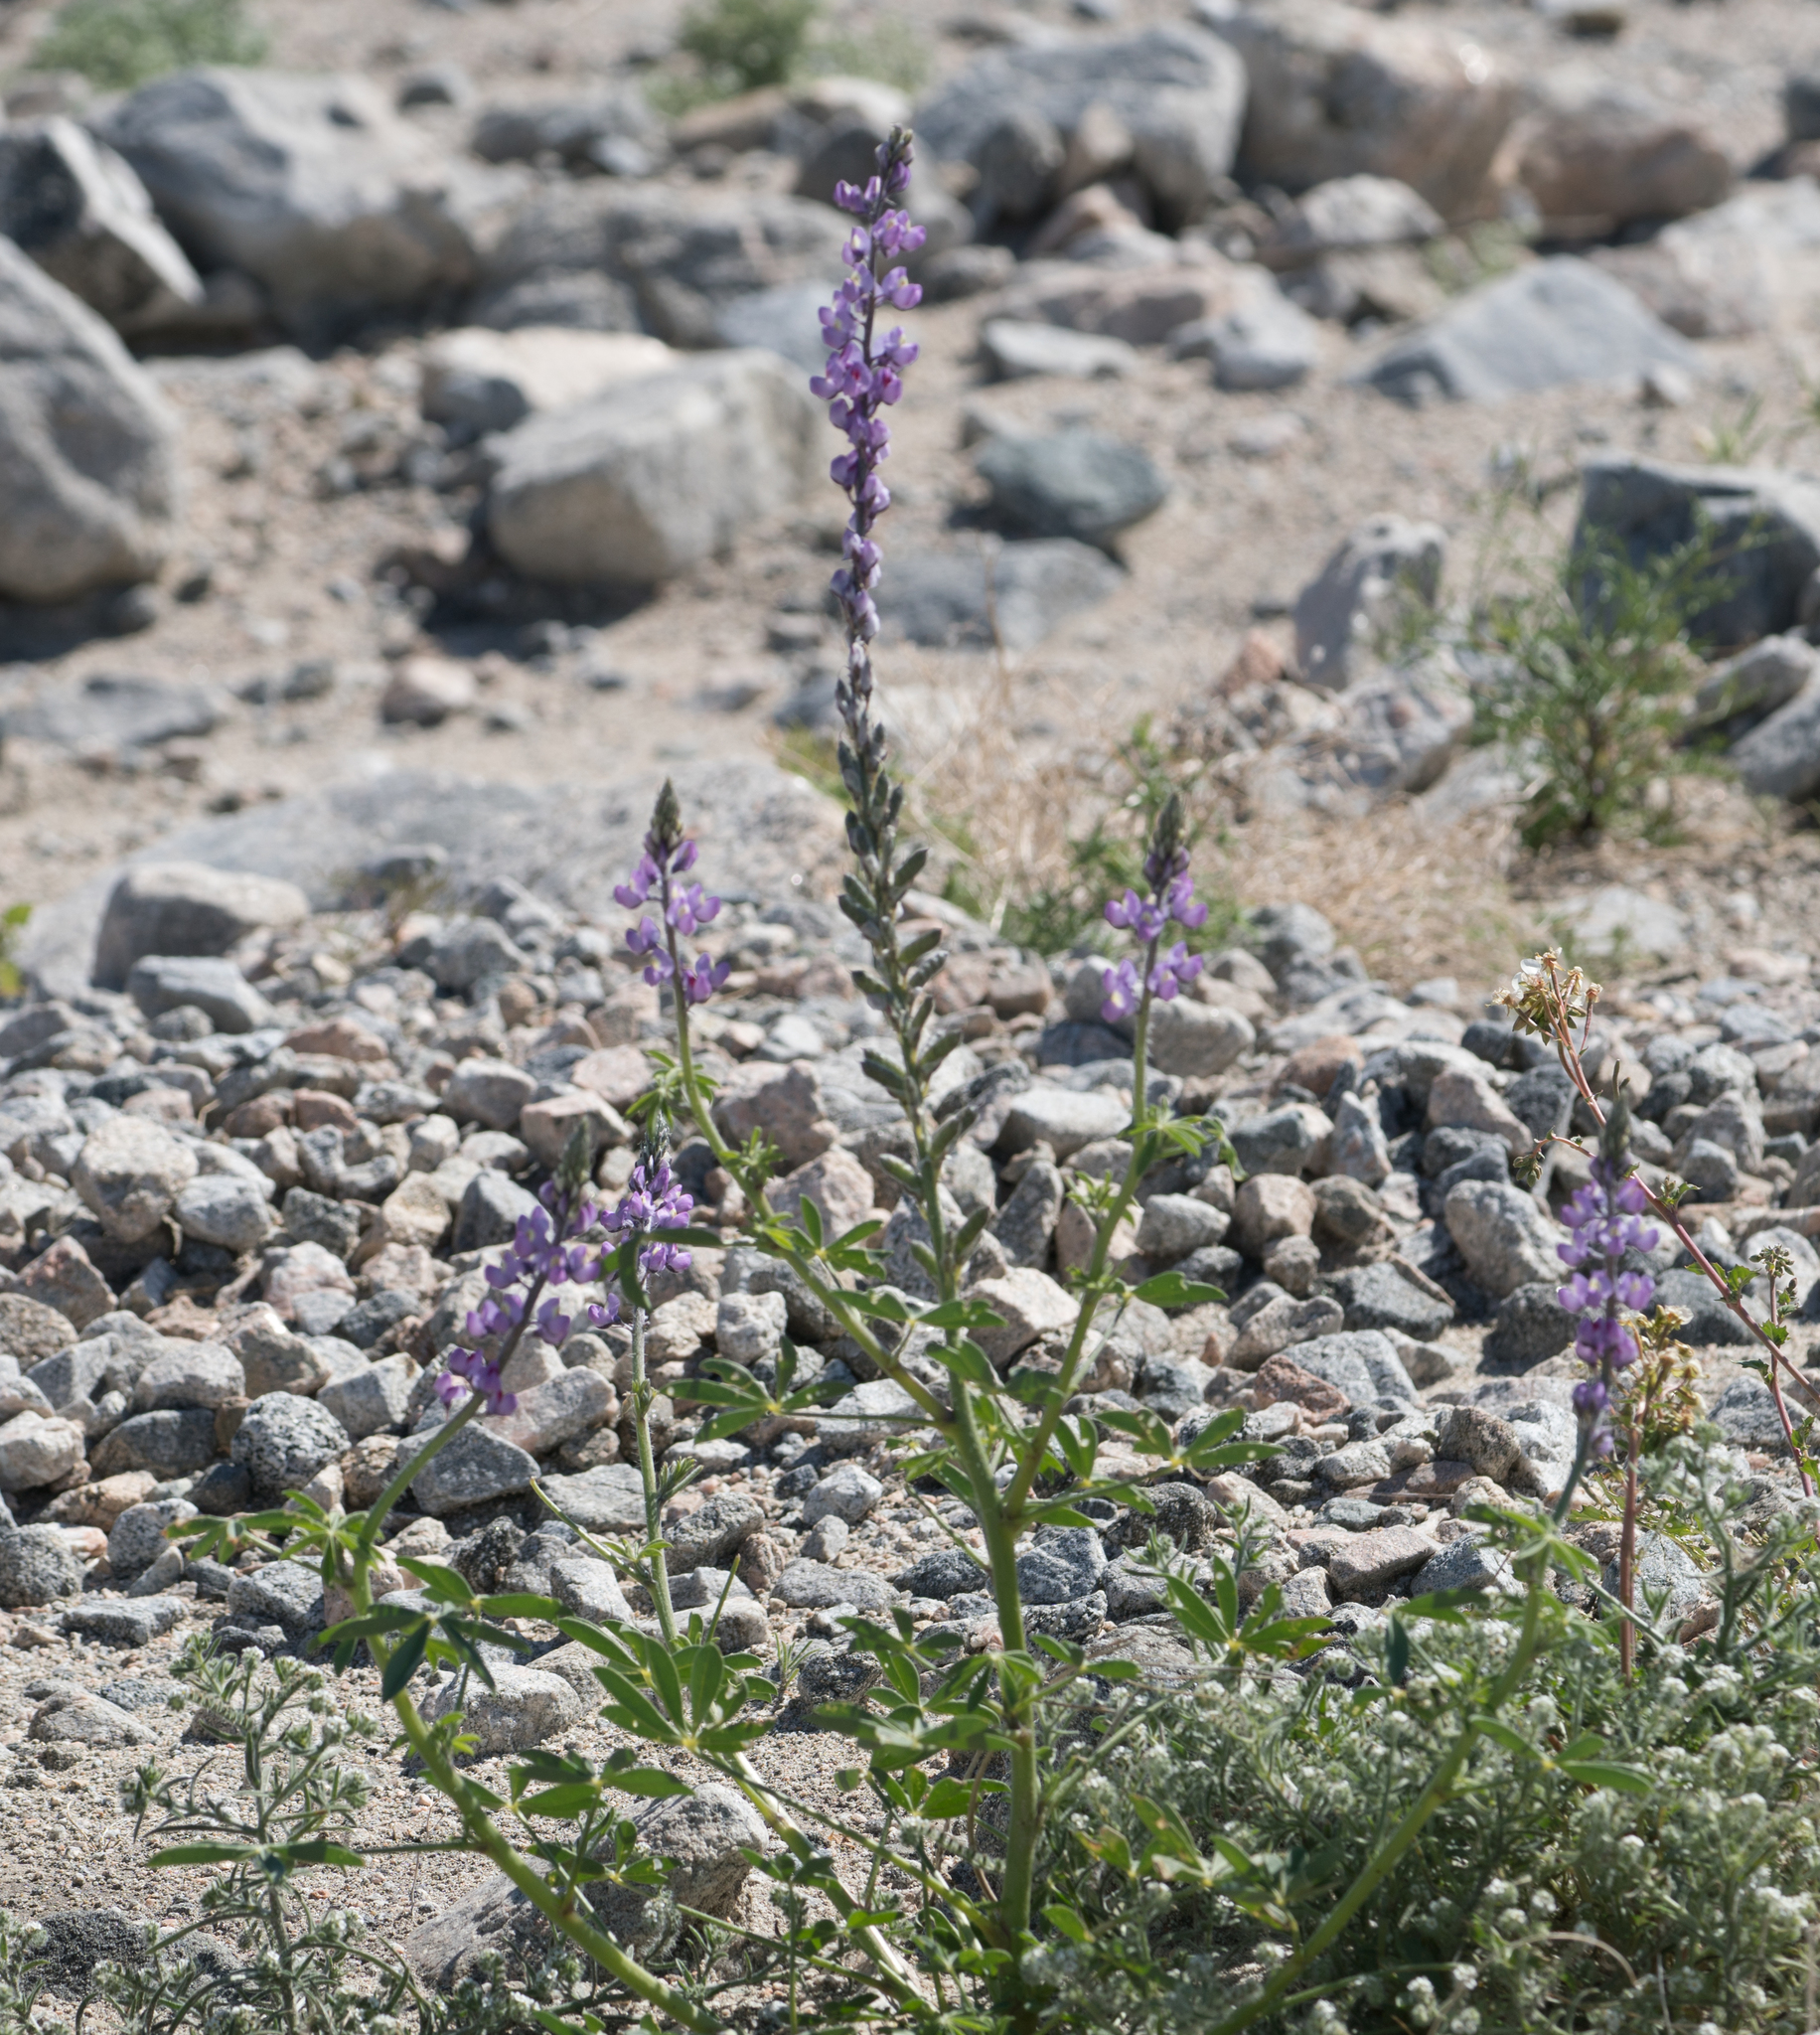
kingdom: Plantae
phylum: Tracheophyta
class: Magnoliopsida
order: Fabales
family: Fabaceae
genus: Lupinus
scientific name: Lupinus arizonicus
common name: Arizona lupine
